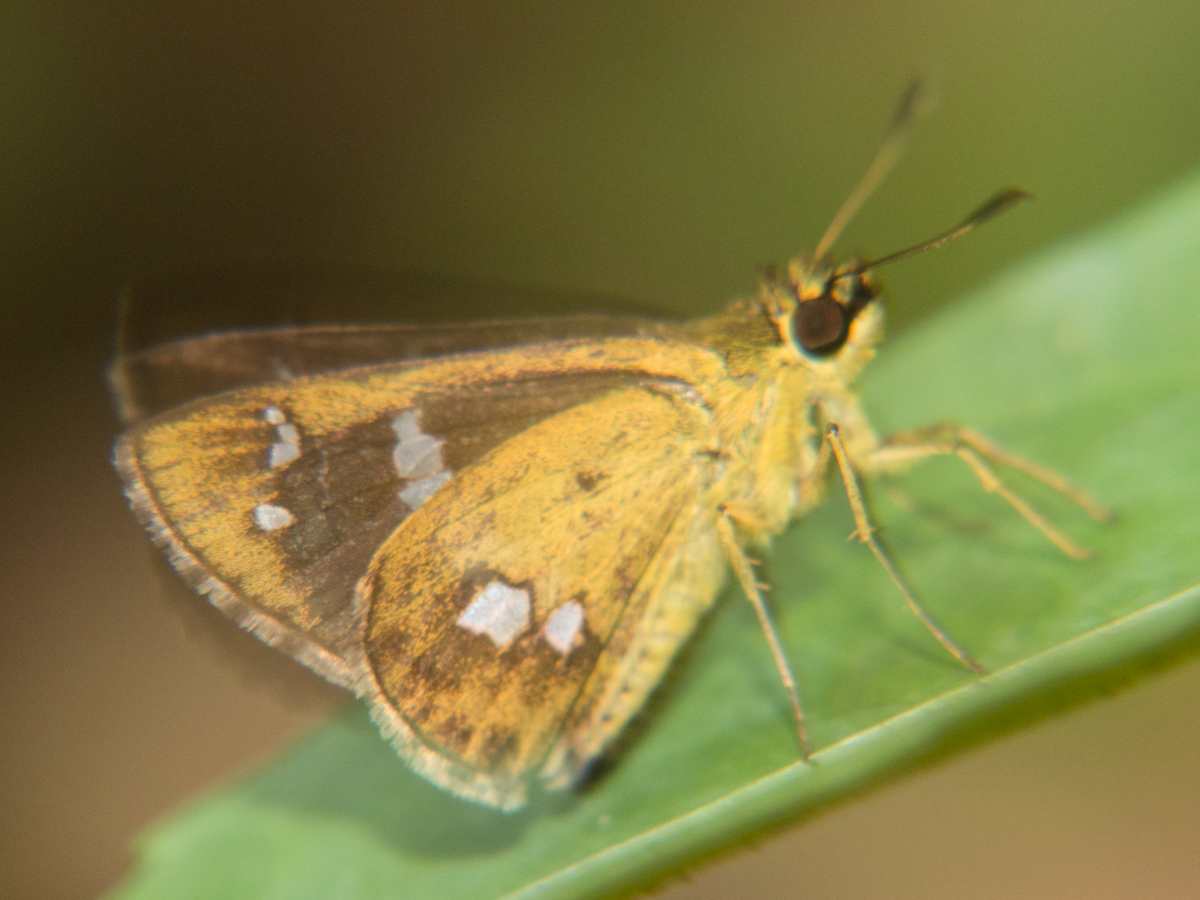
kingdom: Animalia
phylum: Arthropoda
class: Insecta
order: Lepidoptera
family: Hesperiidae
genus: Scobura
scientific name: Scobura isota
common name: Swinhoe's forest bob
